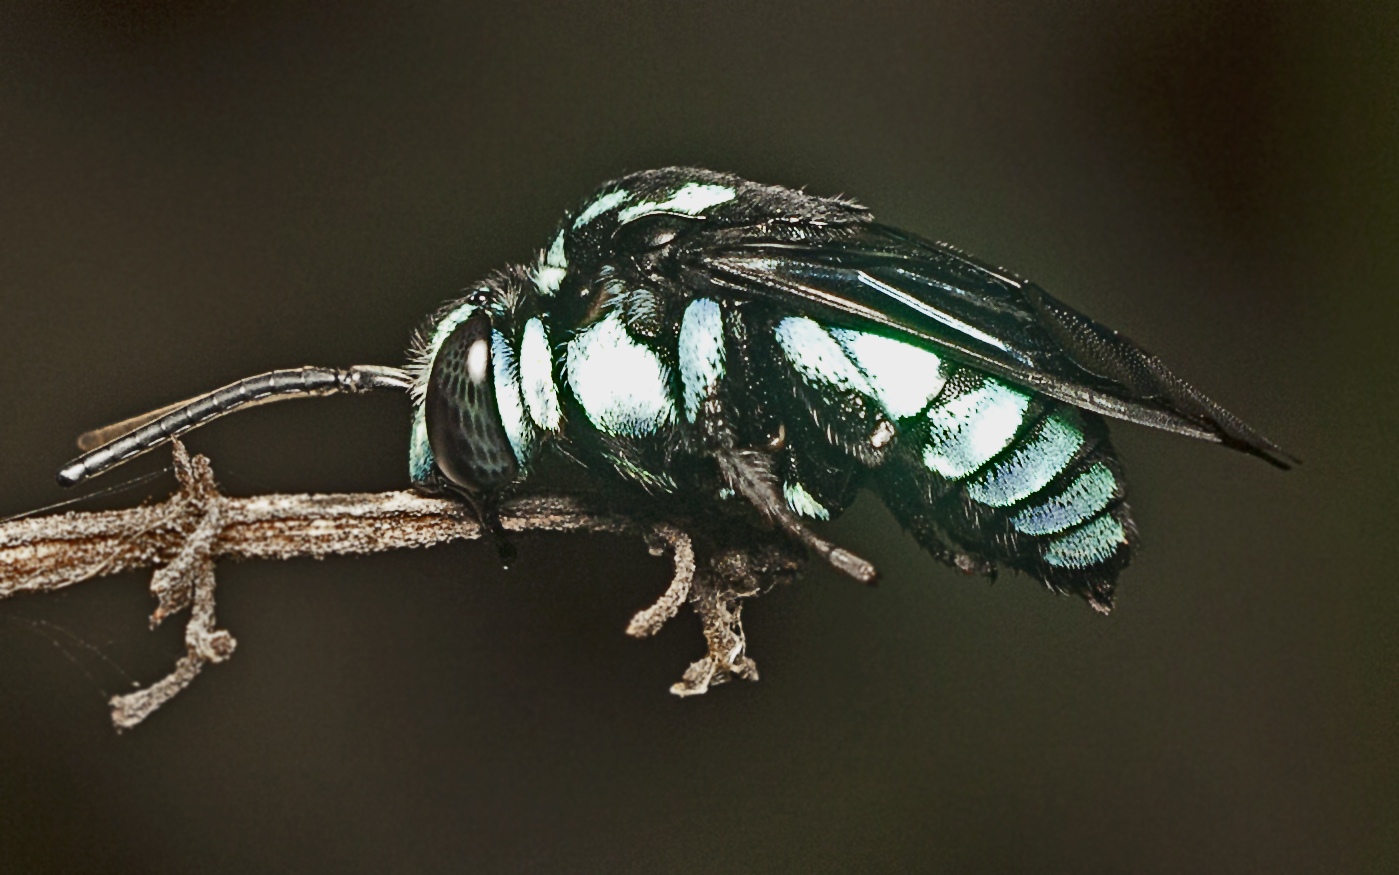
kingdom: Animalia
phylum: Arthropoda
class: Insecta
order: Hymenoptera
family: Apidae
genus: Thyreus
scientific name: Thyreus nitidulus
